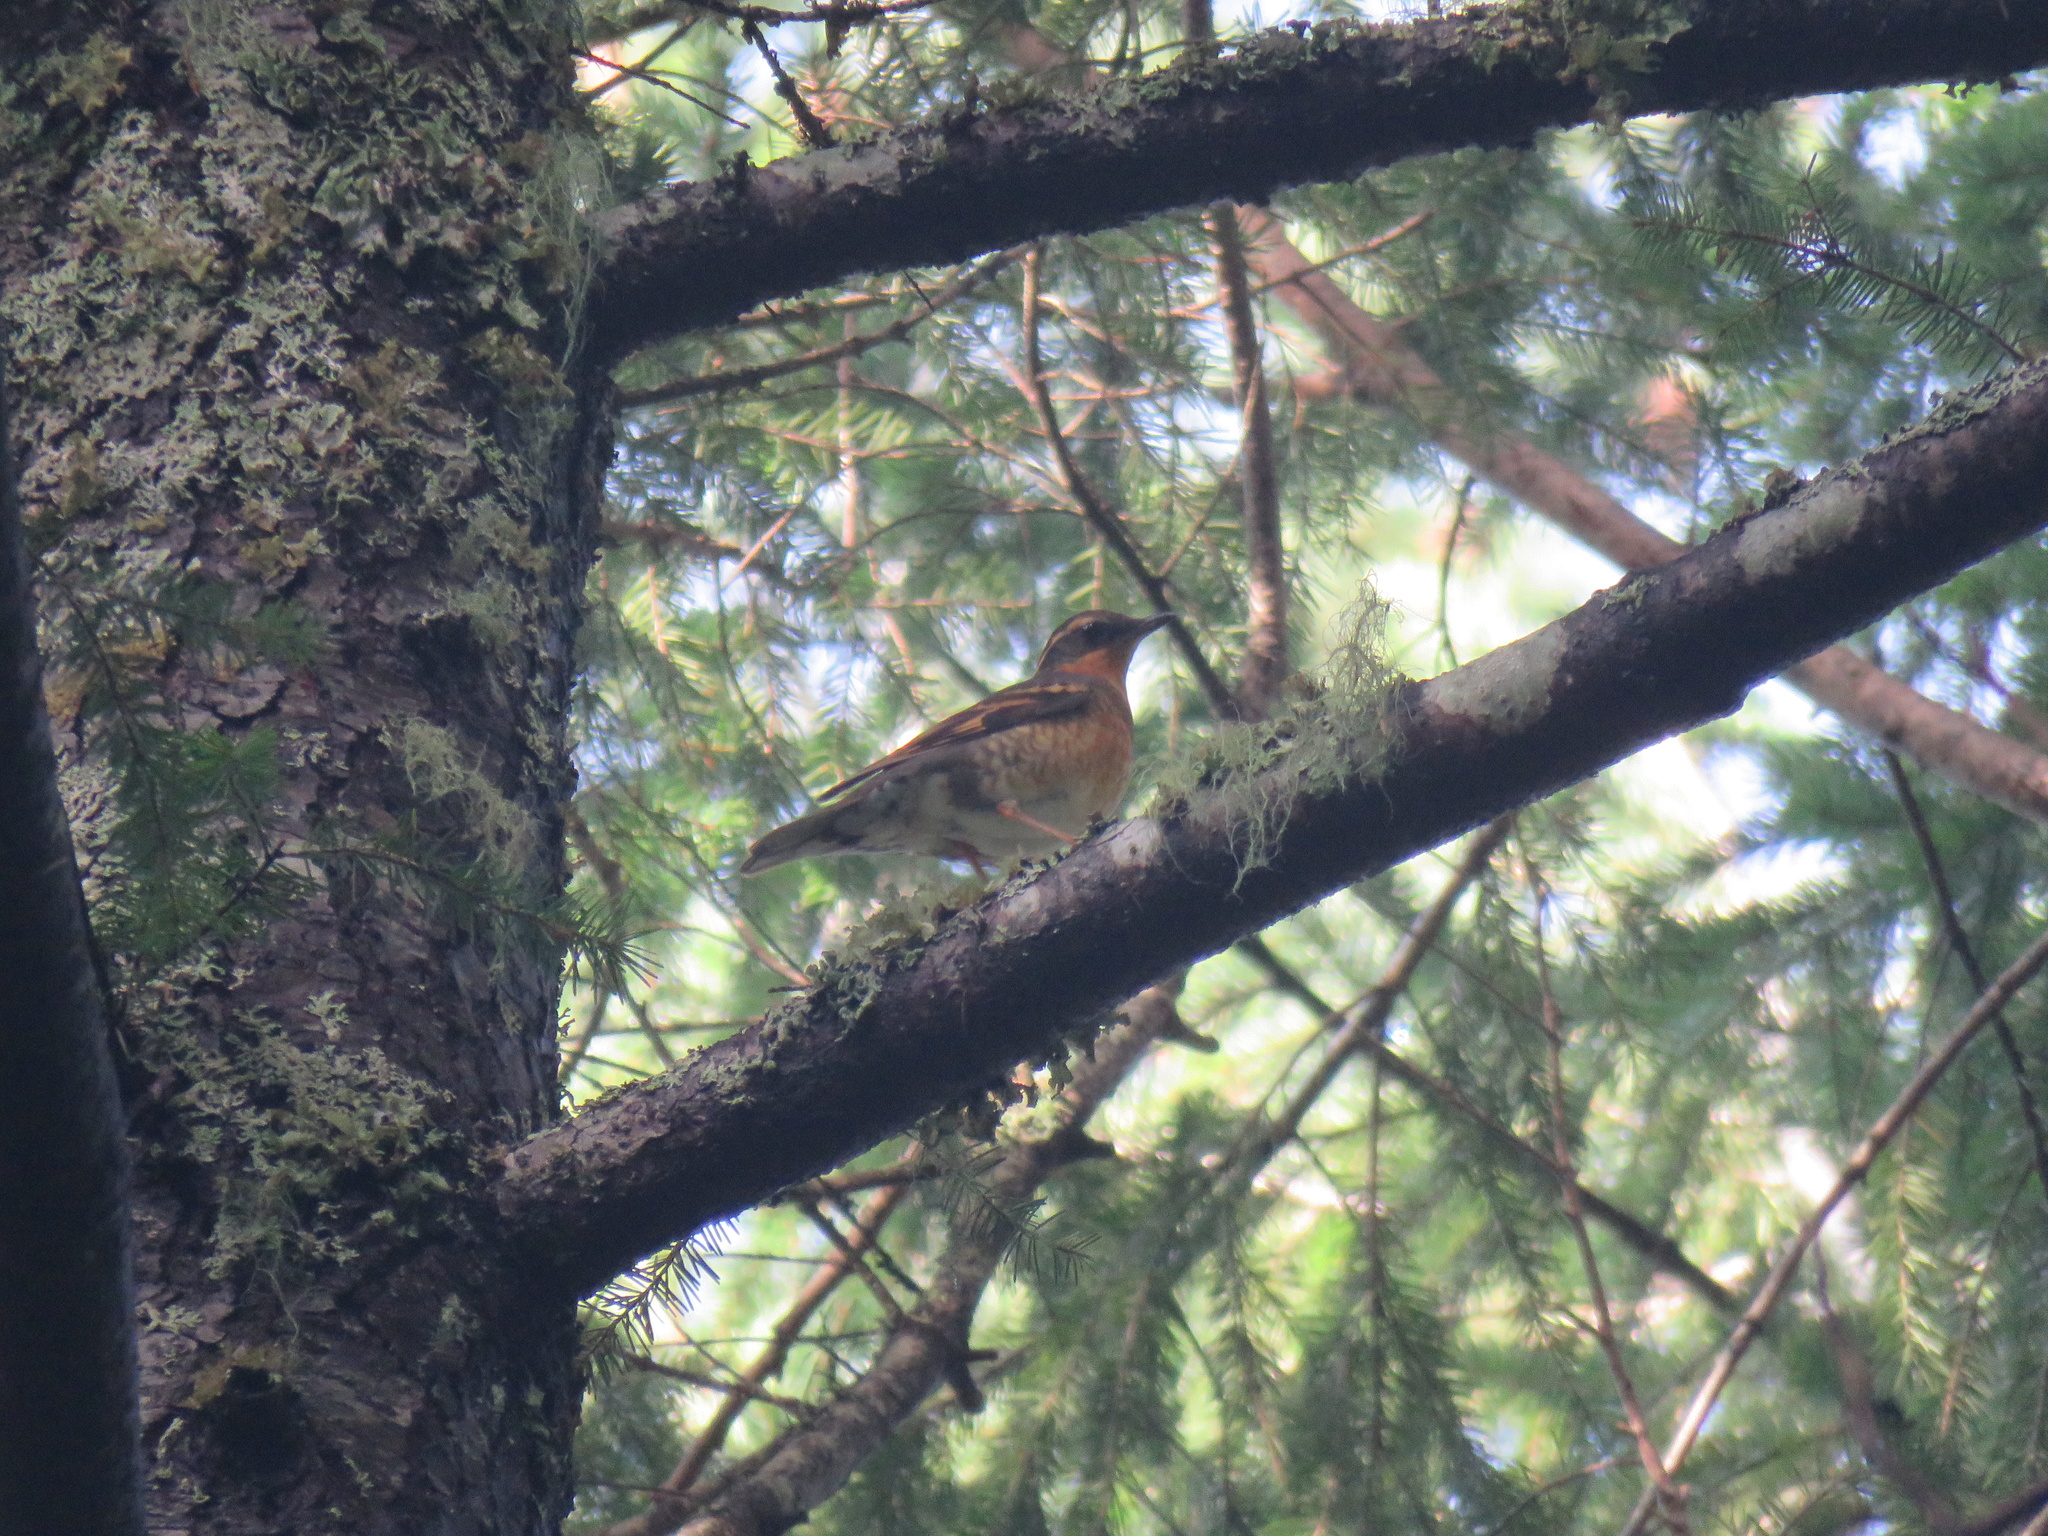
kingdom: Animalia
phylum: Chordata
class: Aves
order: Passeriformes
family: Turdidae
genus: Ixoreus
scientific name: Ixoreus naevius
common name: Varied thrush
